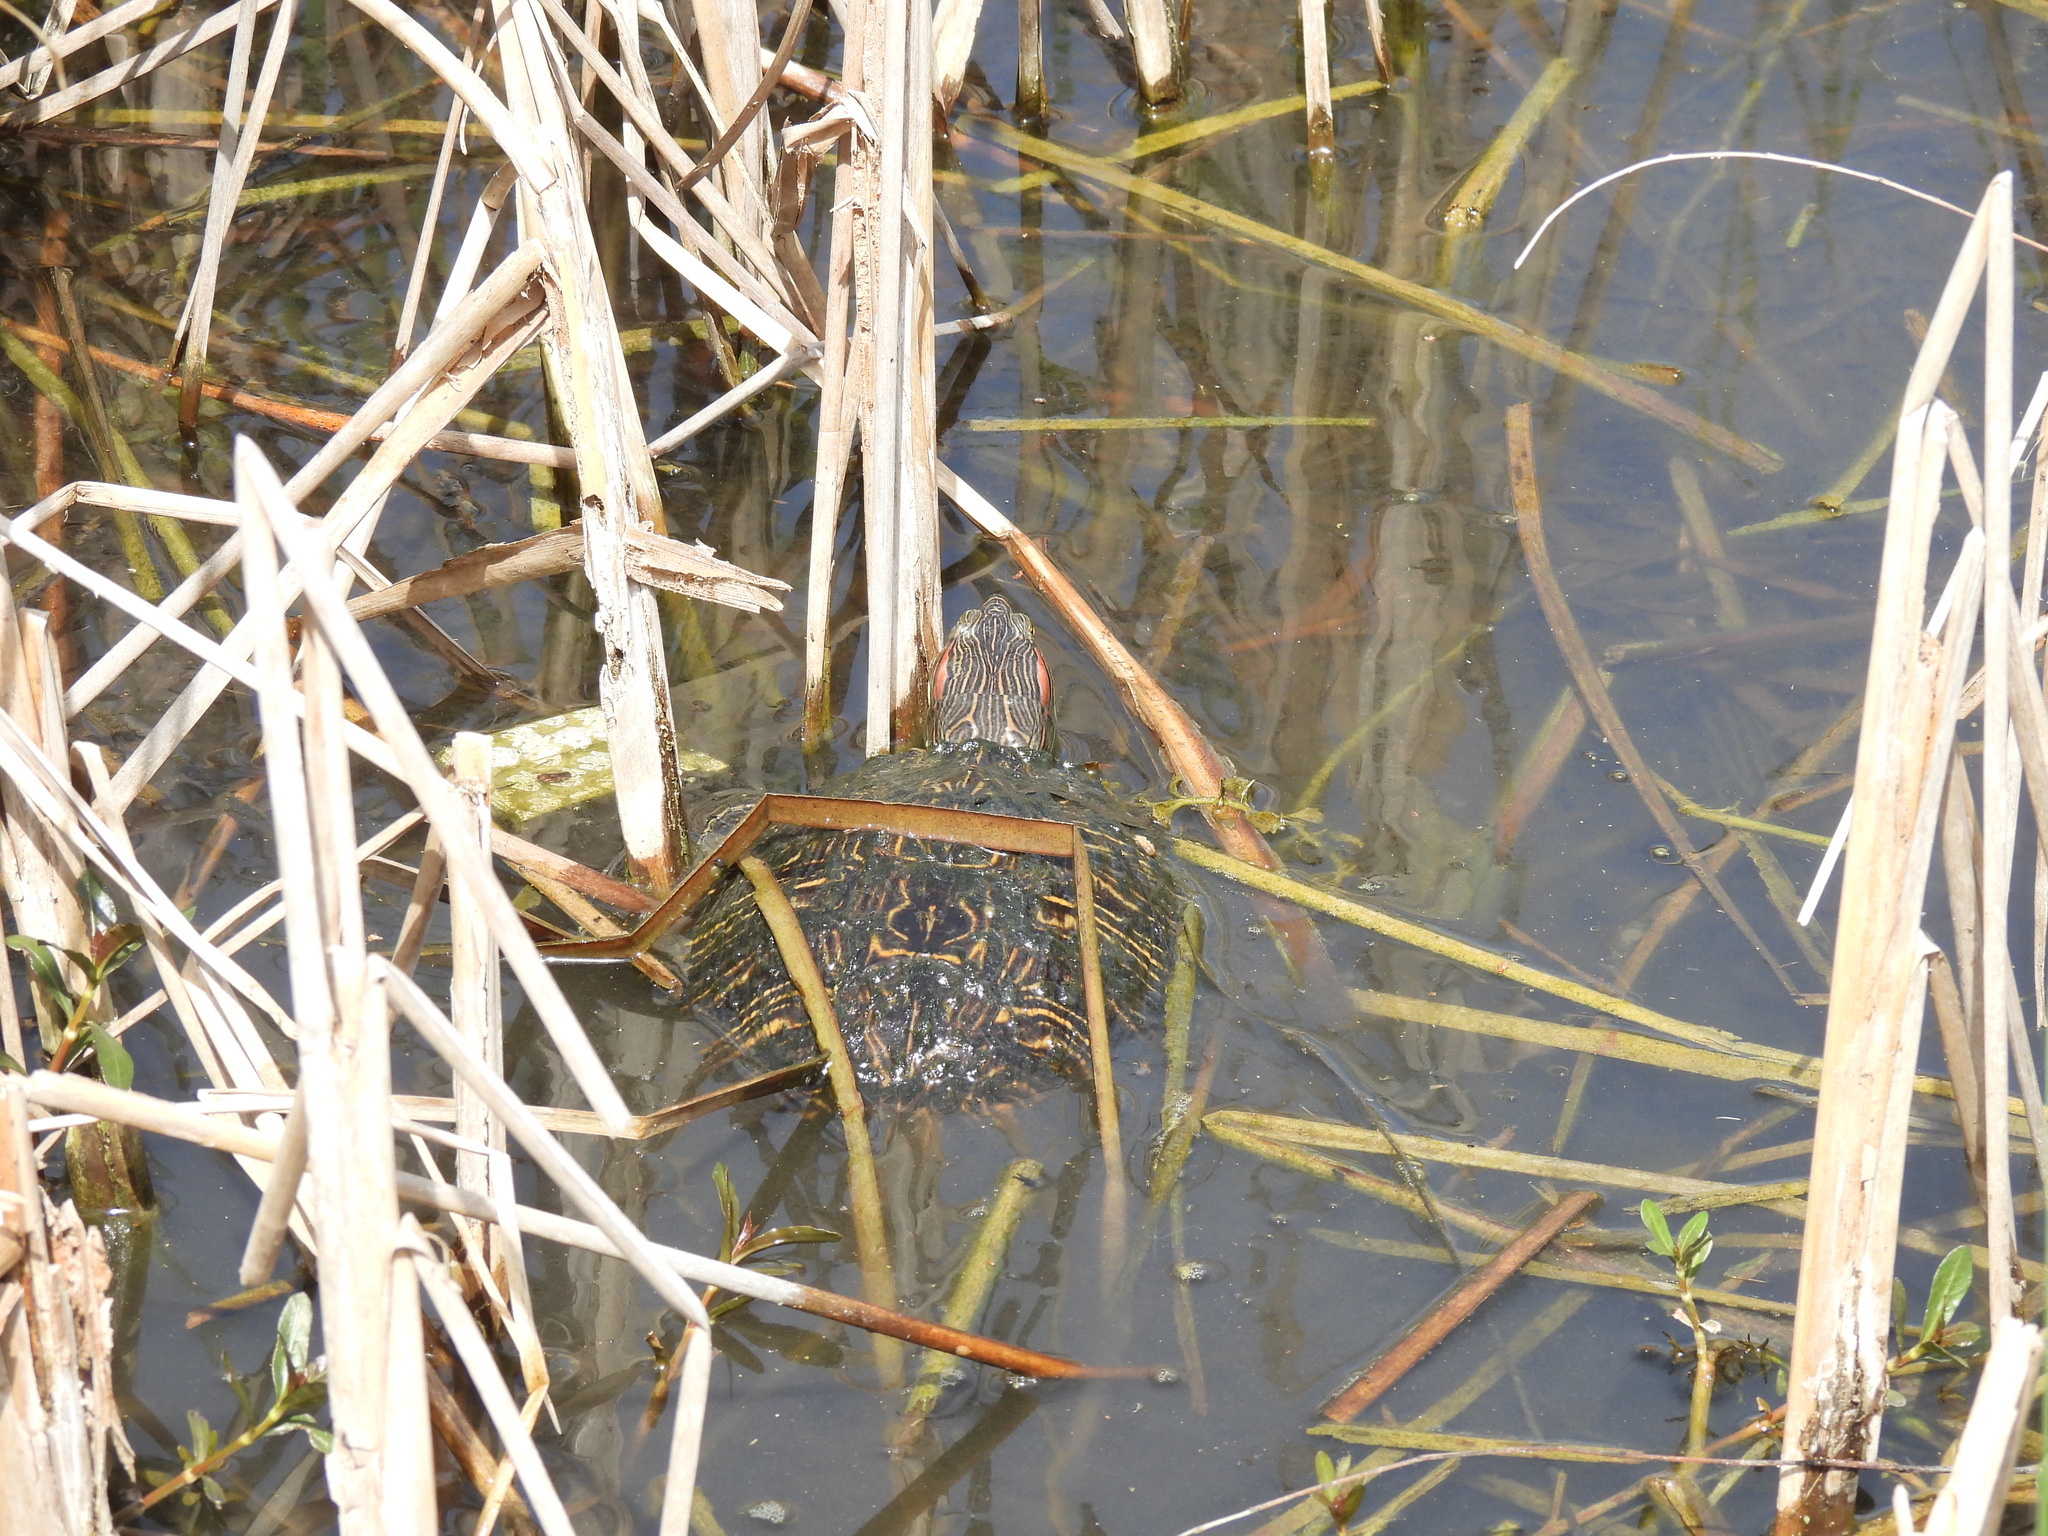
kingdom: Animalia
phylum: Chordata
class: Testudines
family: Emydidae
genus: Trachemys
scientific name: Trachemys scripta
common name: Slider
